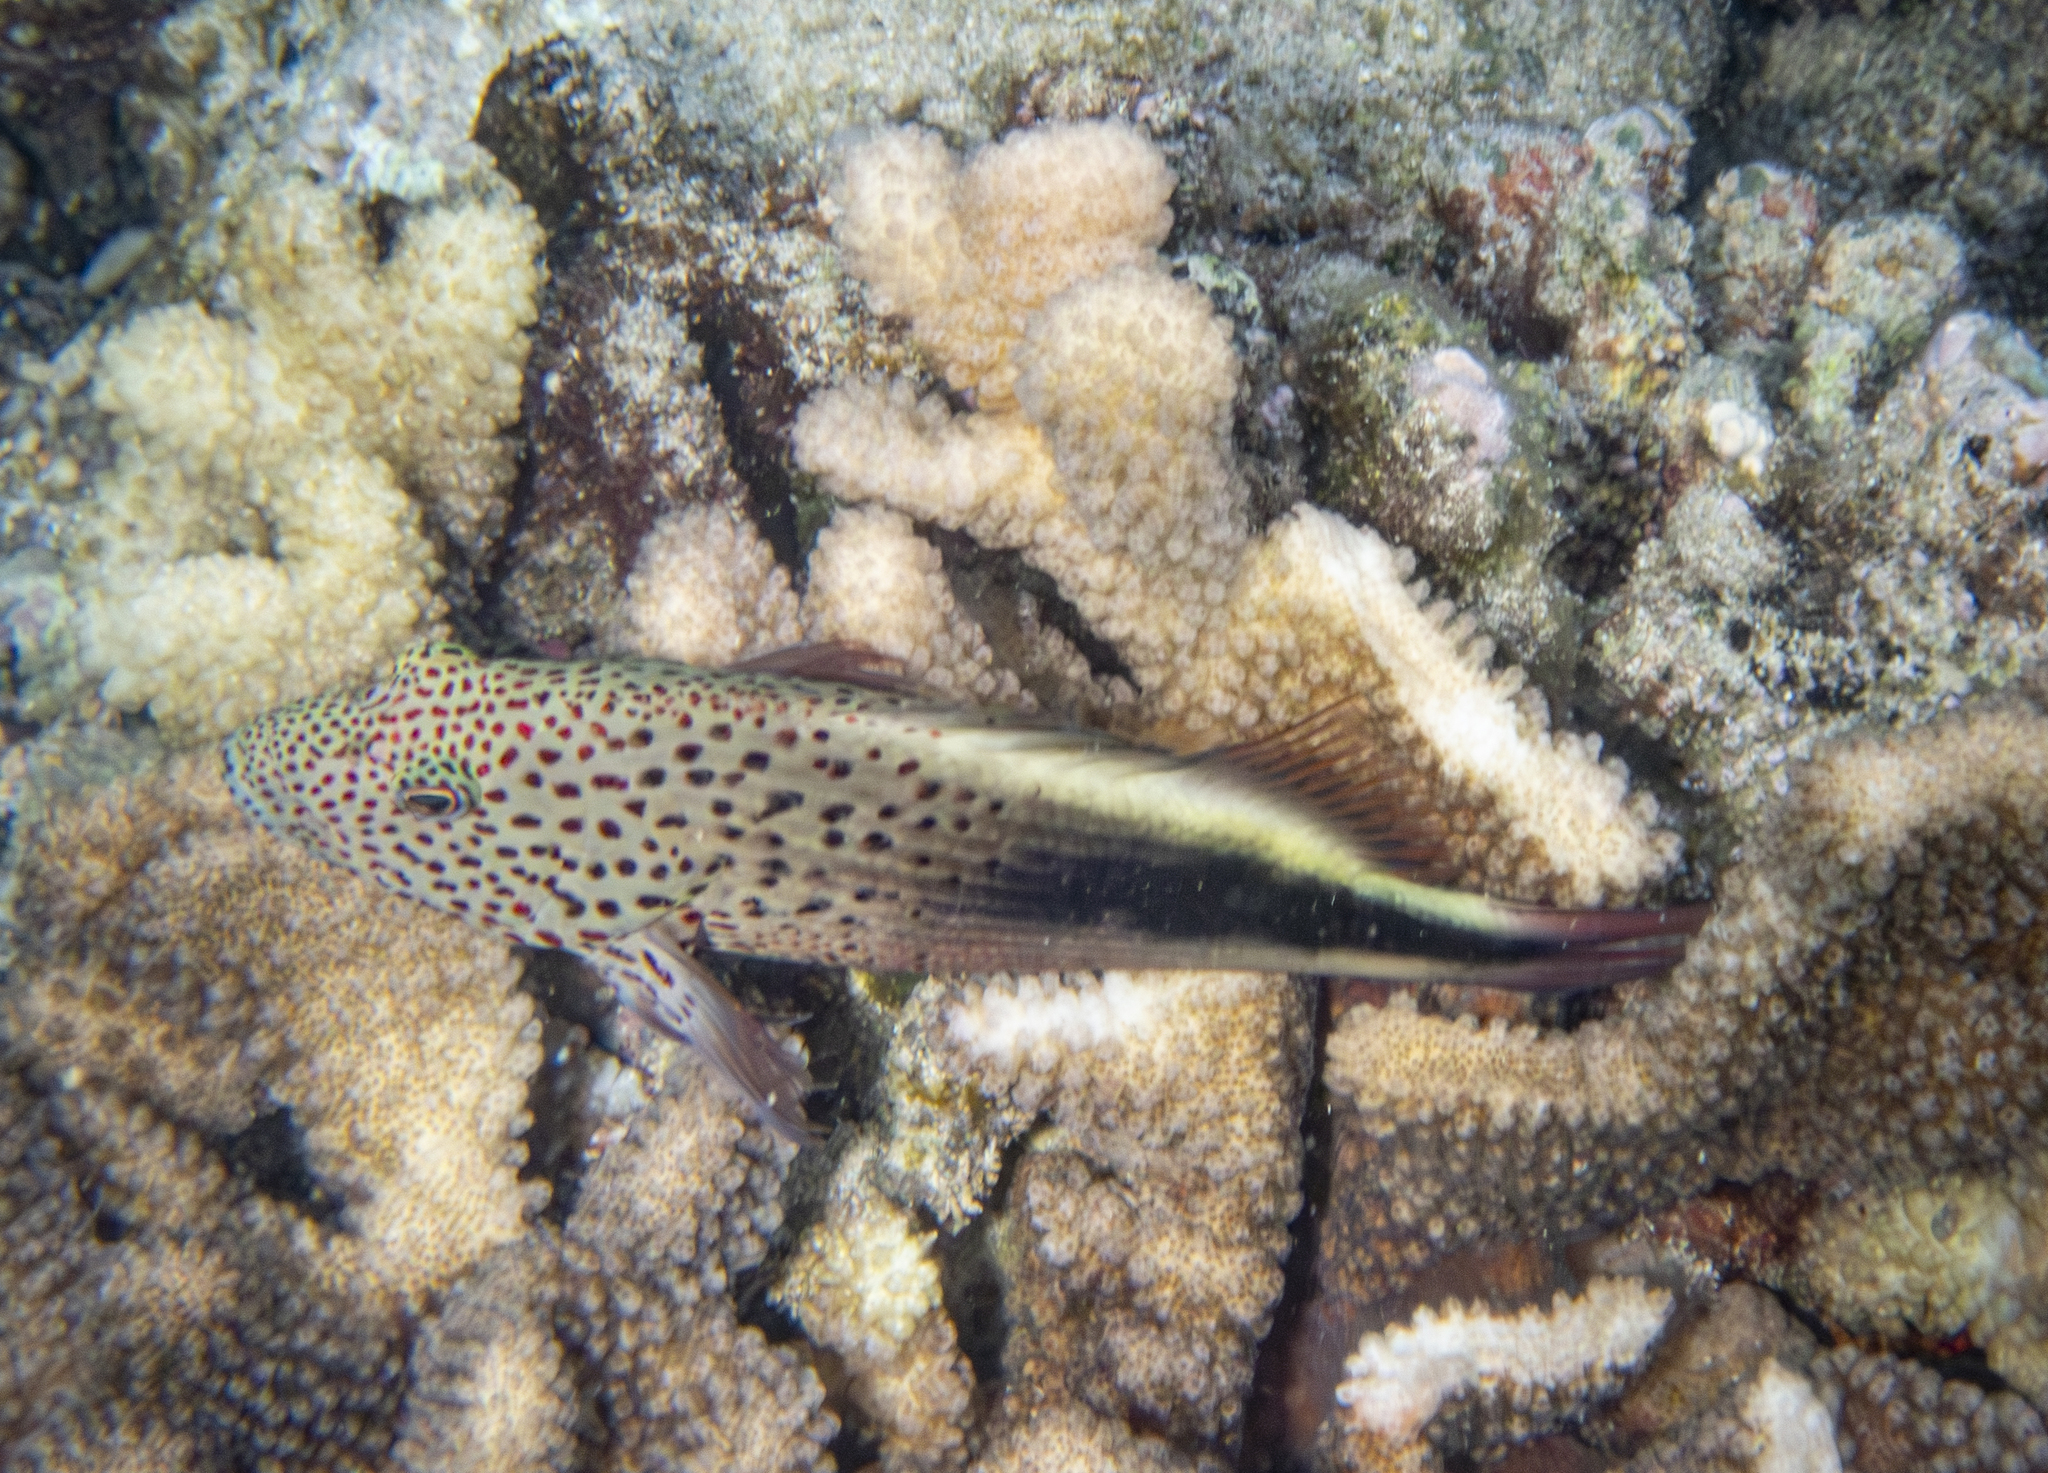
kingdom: Animalia
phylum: Chordata
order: Perciformes
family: Cirrhitidae
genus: Paracirrhites
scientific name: Paracirrhites forsteri
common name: Freckled hawkfish
